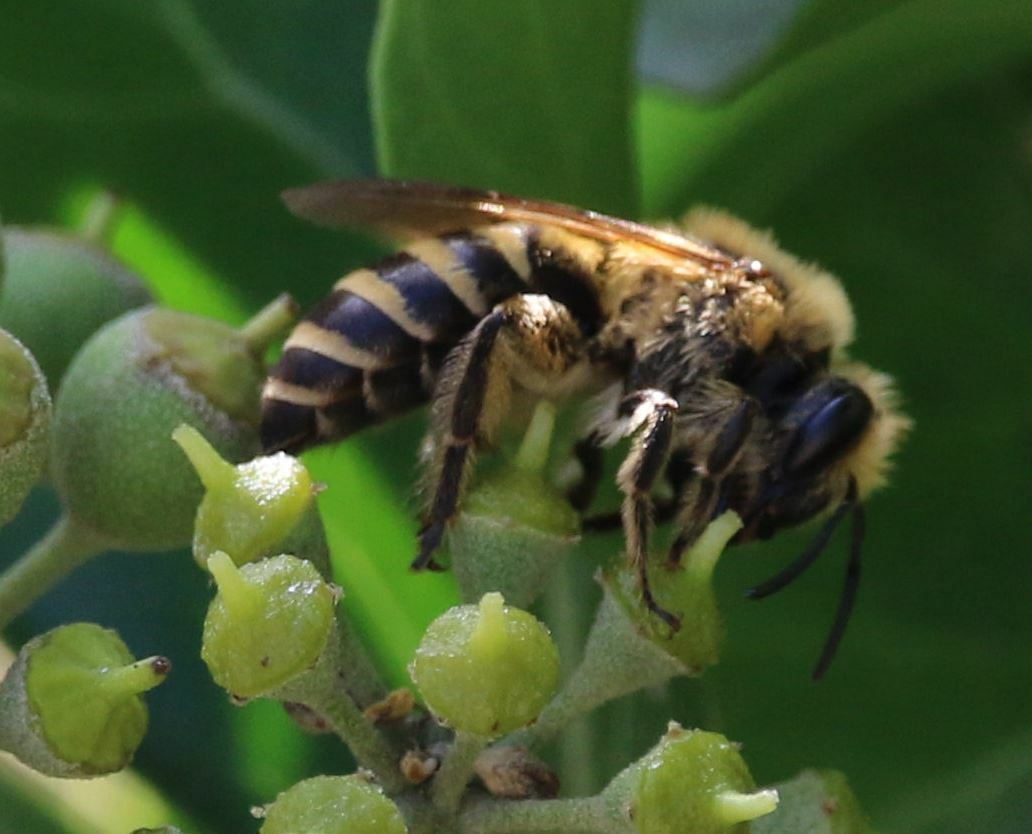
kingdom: Animalia
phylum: Arthropoda
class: Insecta
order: Hymenoptera
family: Colletidae
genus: Colletes
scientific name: Colletes hederae
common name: Ivy bee
